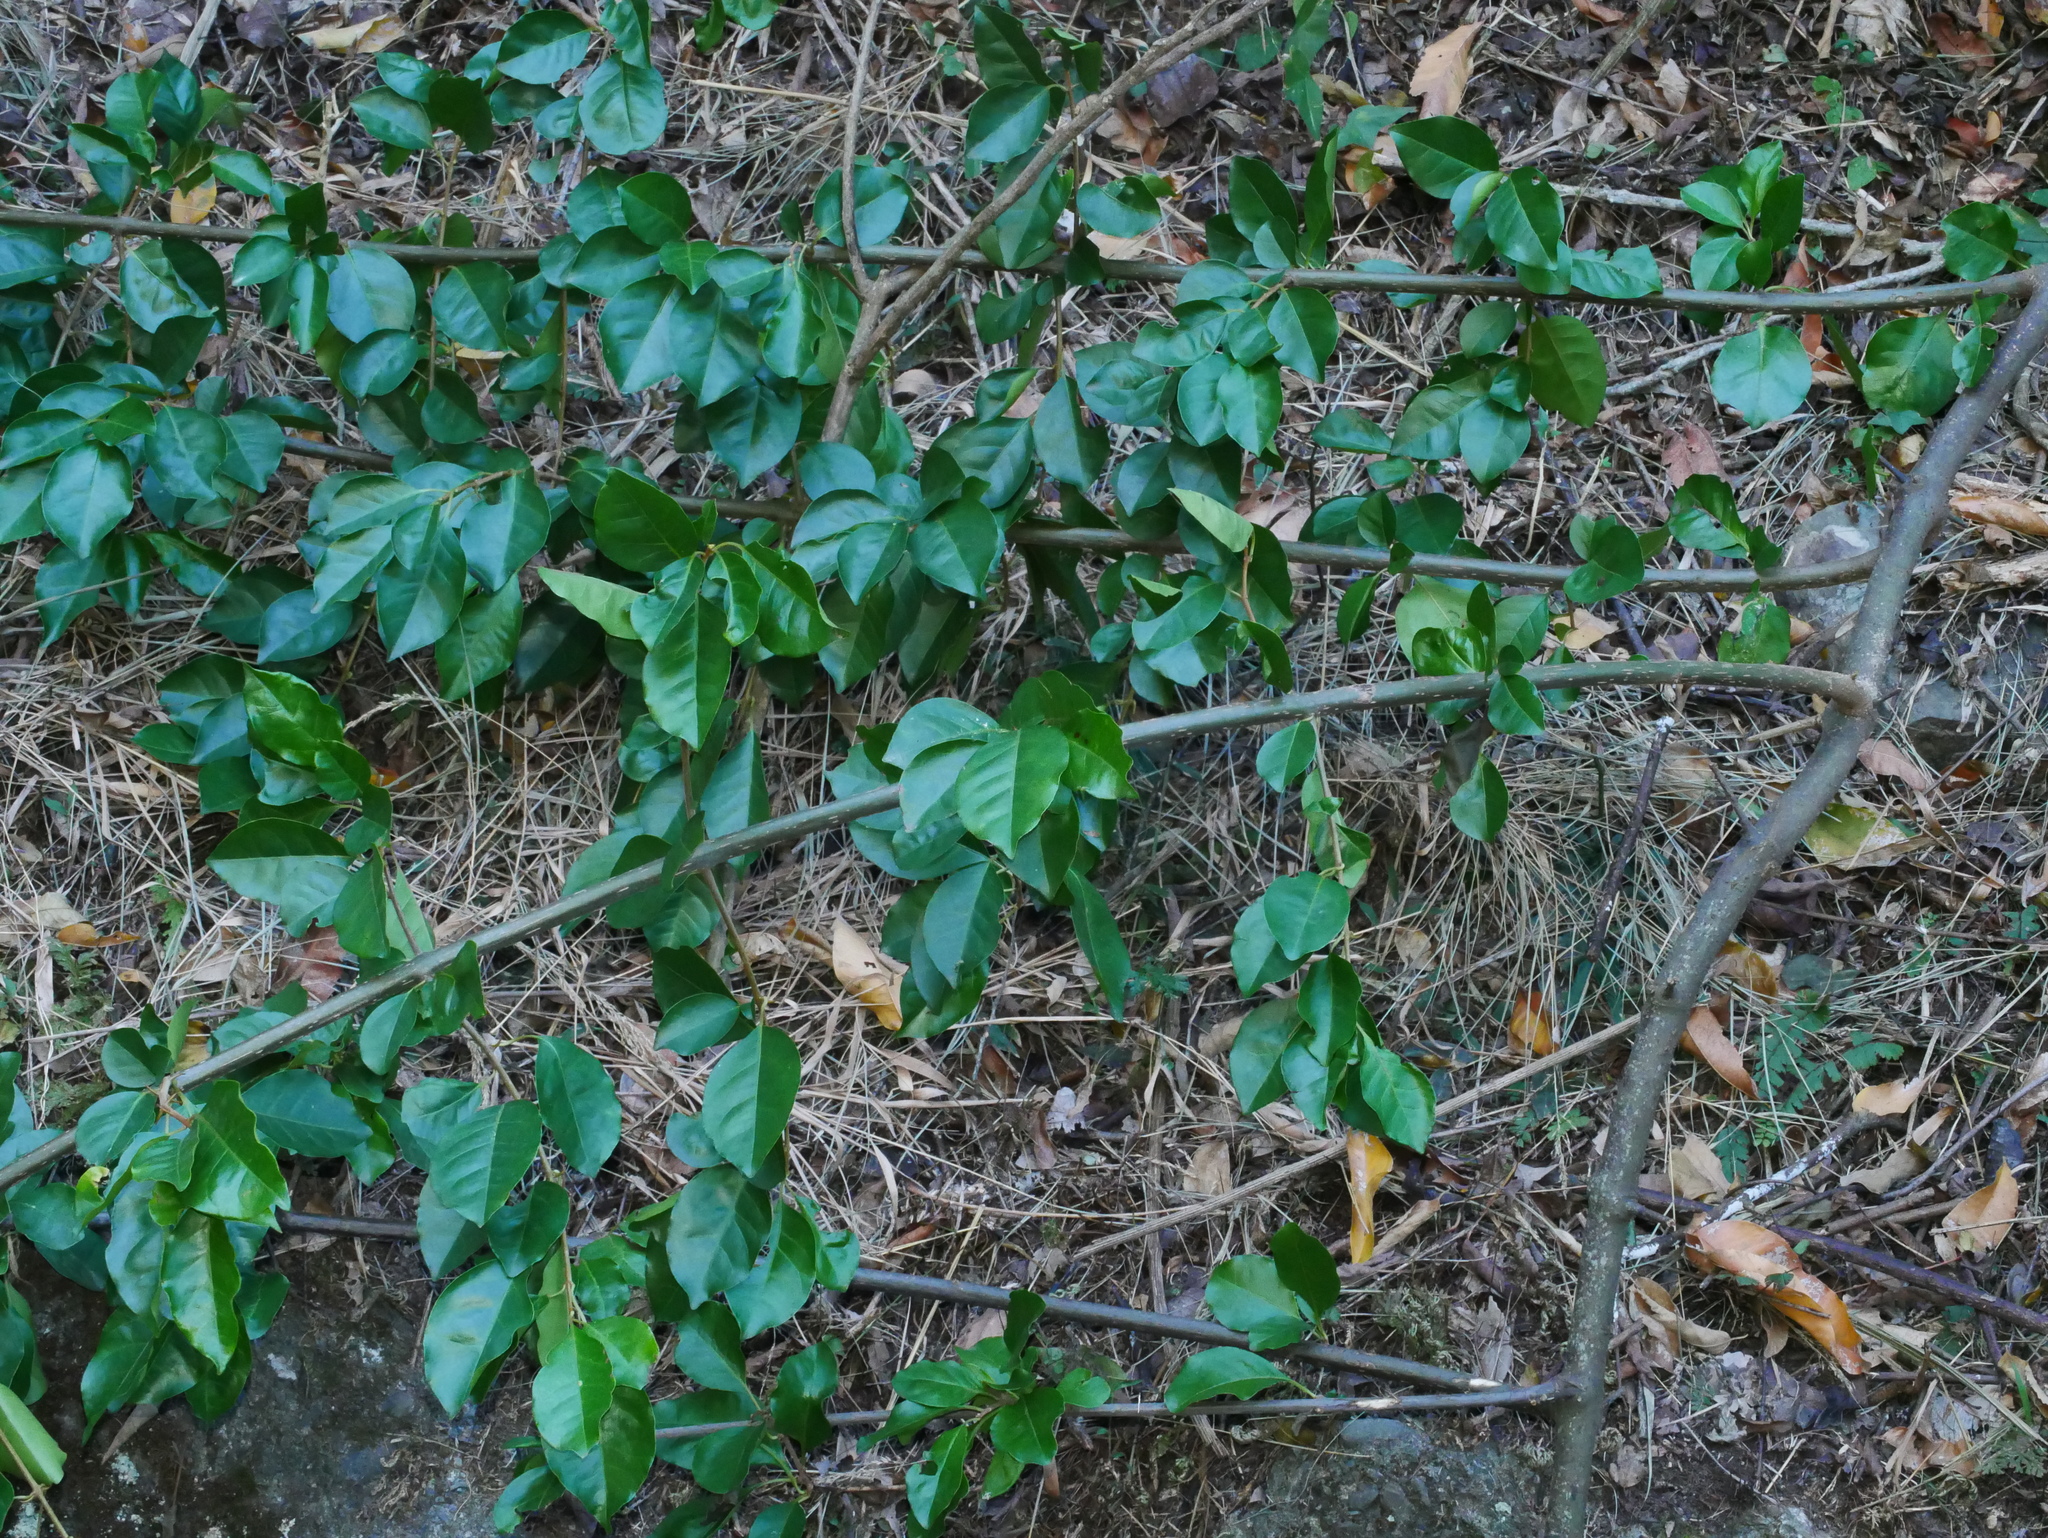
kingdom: Plantae
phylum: Tracheophyta
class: Magnoliopsida
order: Caryophyllales
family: Nyctaginaceae
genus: Pisonia
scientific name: Pisonia aculeata
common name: Cockspur vine
